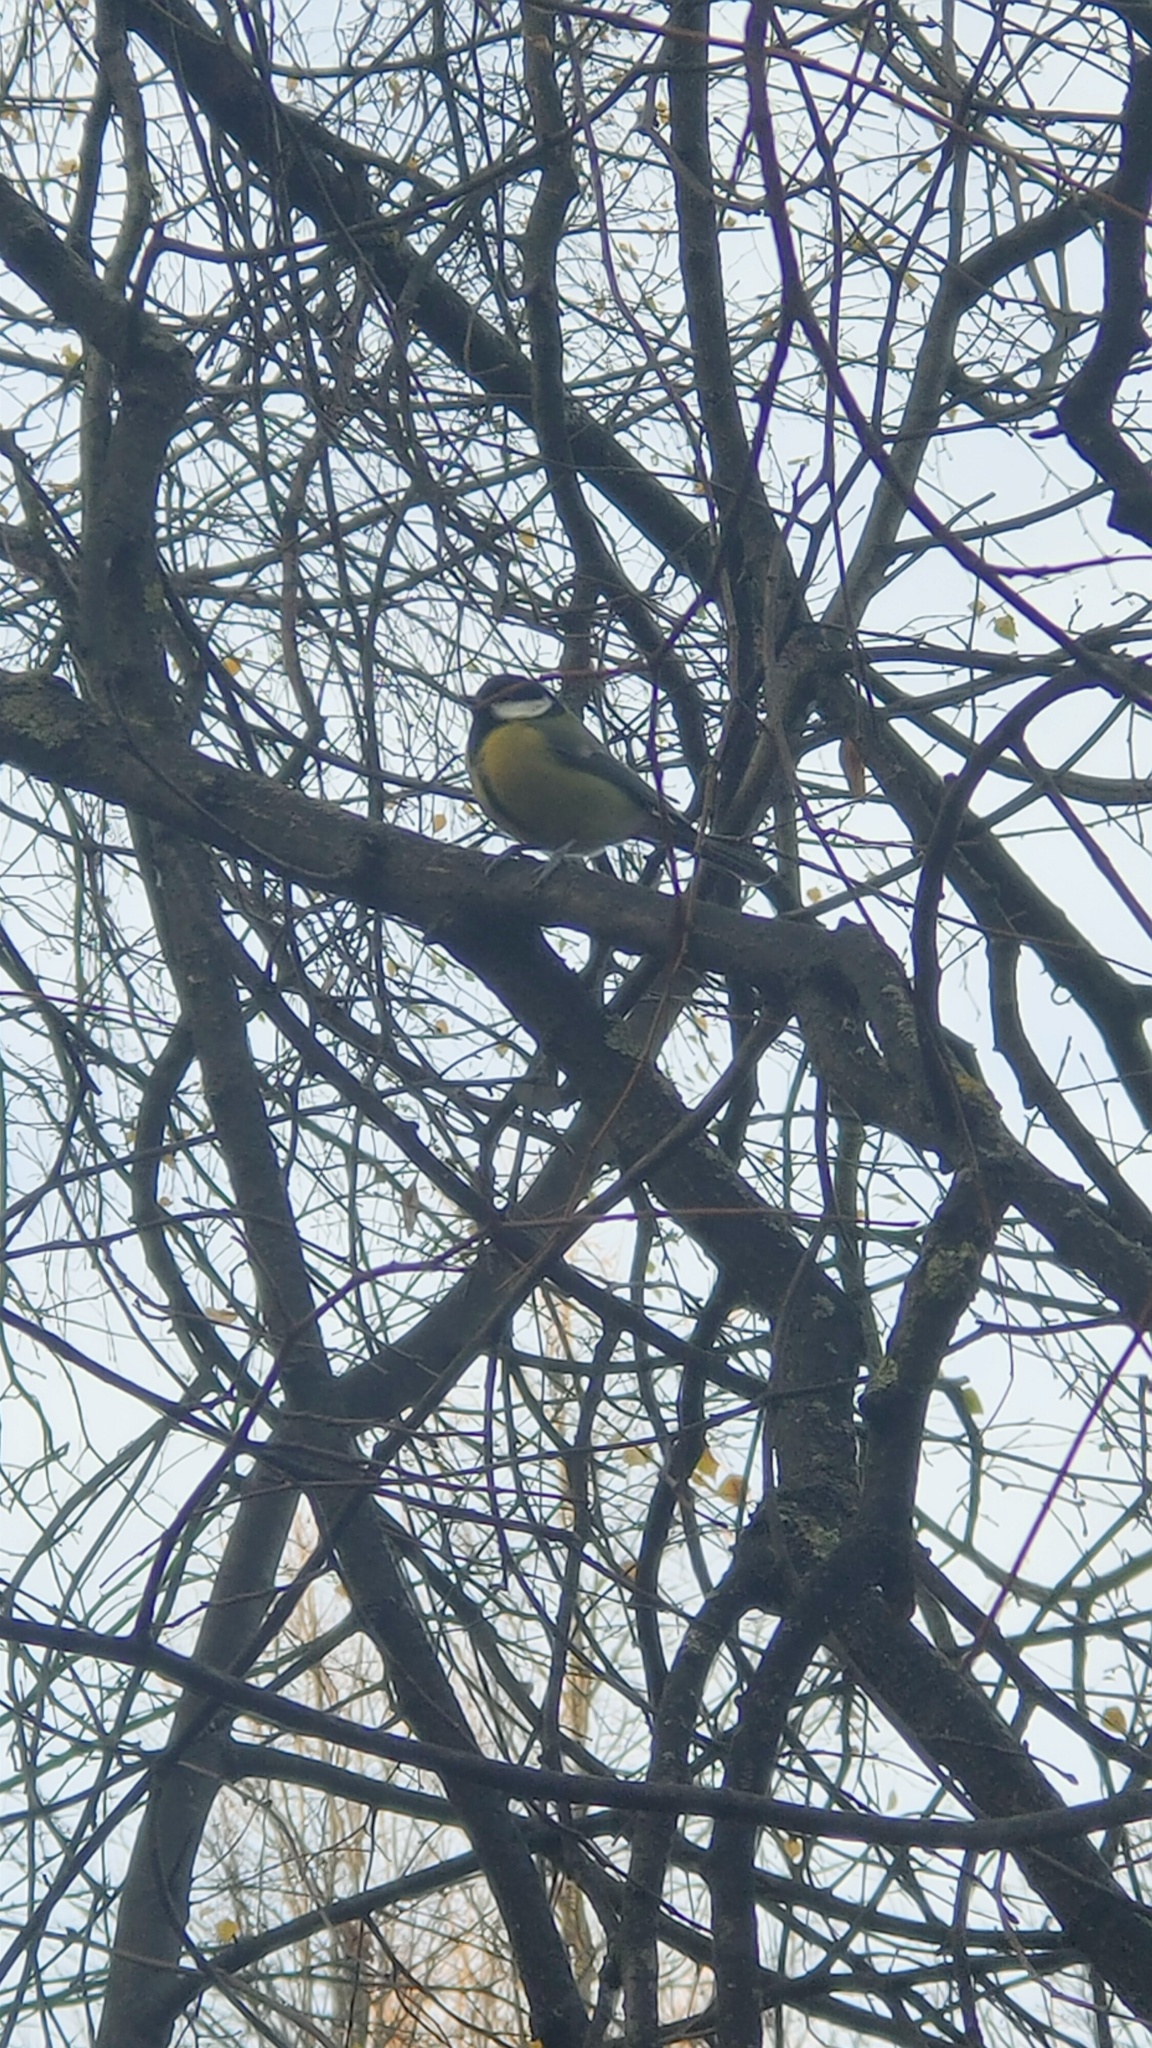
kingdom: Animalia
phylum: Chordata
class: Aves
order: Passeriformes
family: Paridae
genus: Parus
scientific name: Parus major
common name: Great tit
